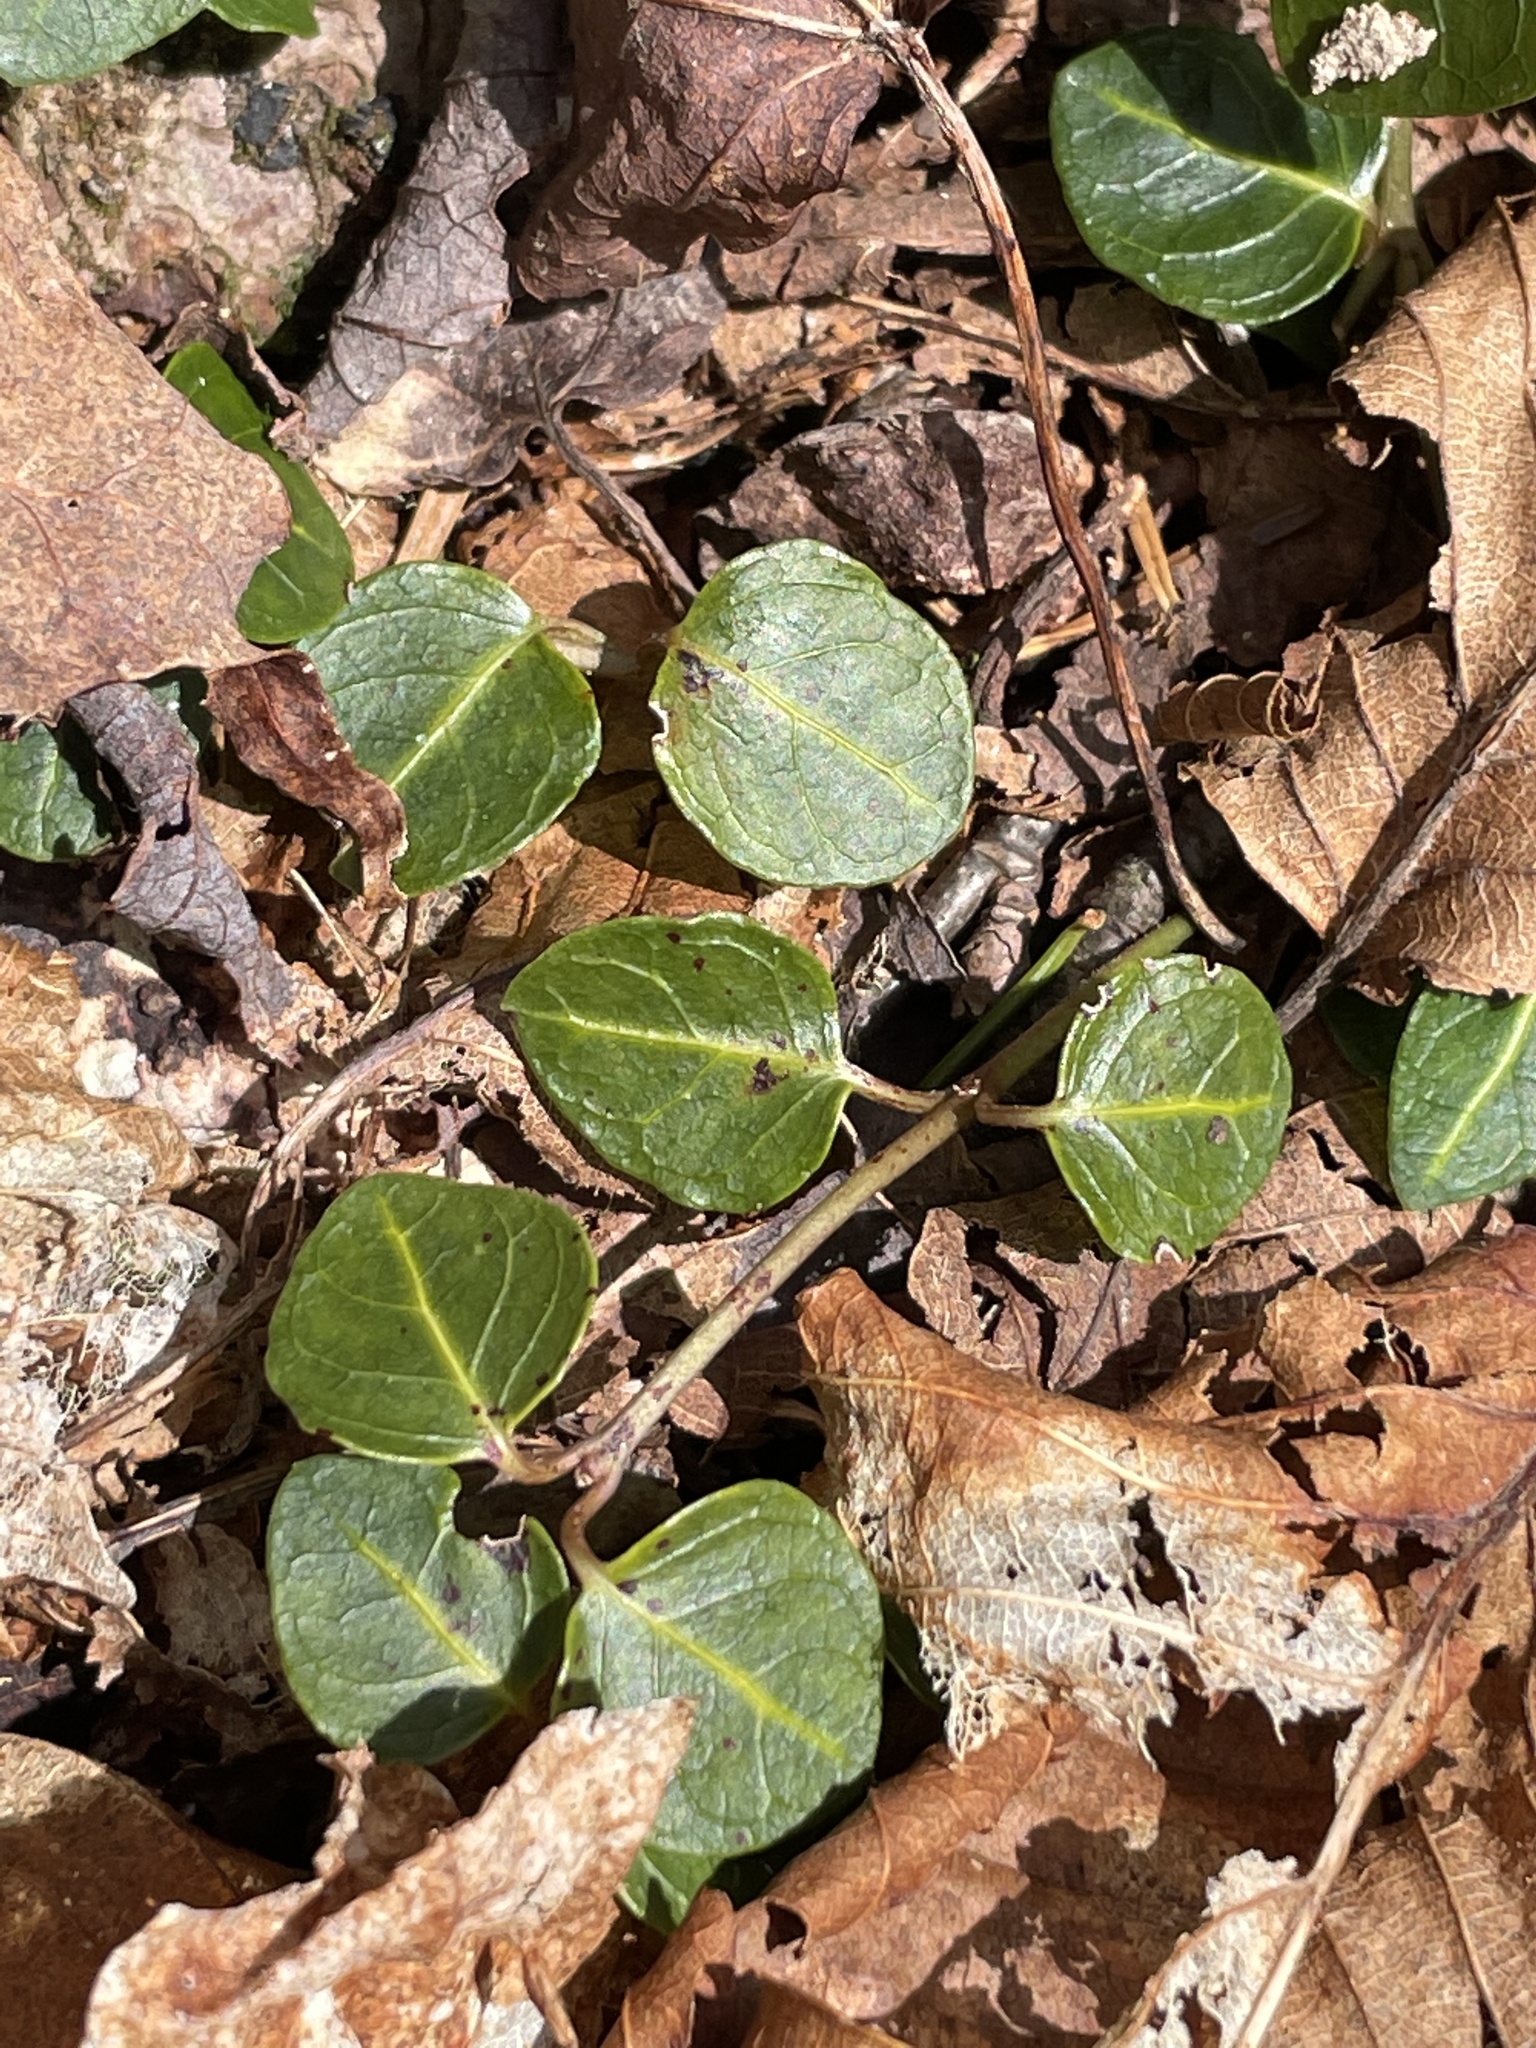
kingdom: Plantae
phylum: Tracheophyta
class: Magnoliopsida
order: Gentianales
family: Rubiaceae
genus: Mitchella
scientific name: Mitchella repens
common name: Partridge-berry
